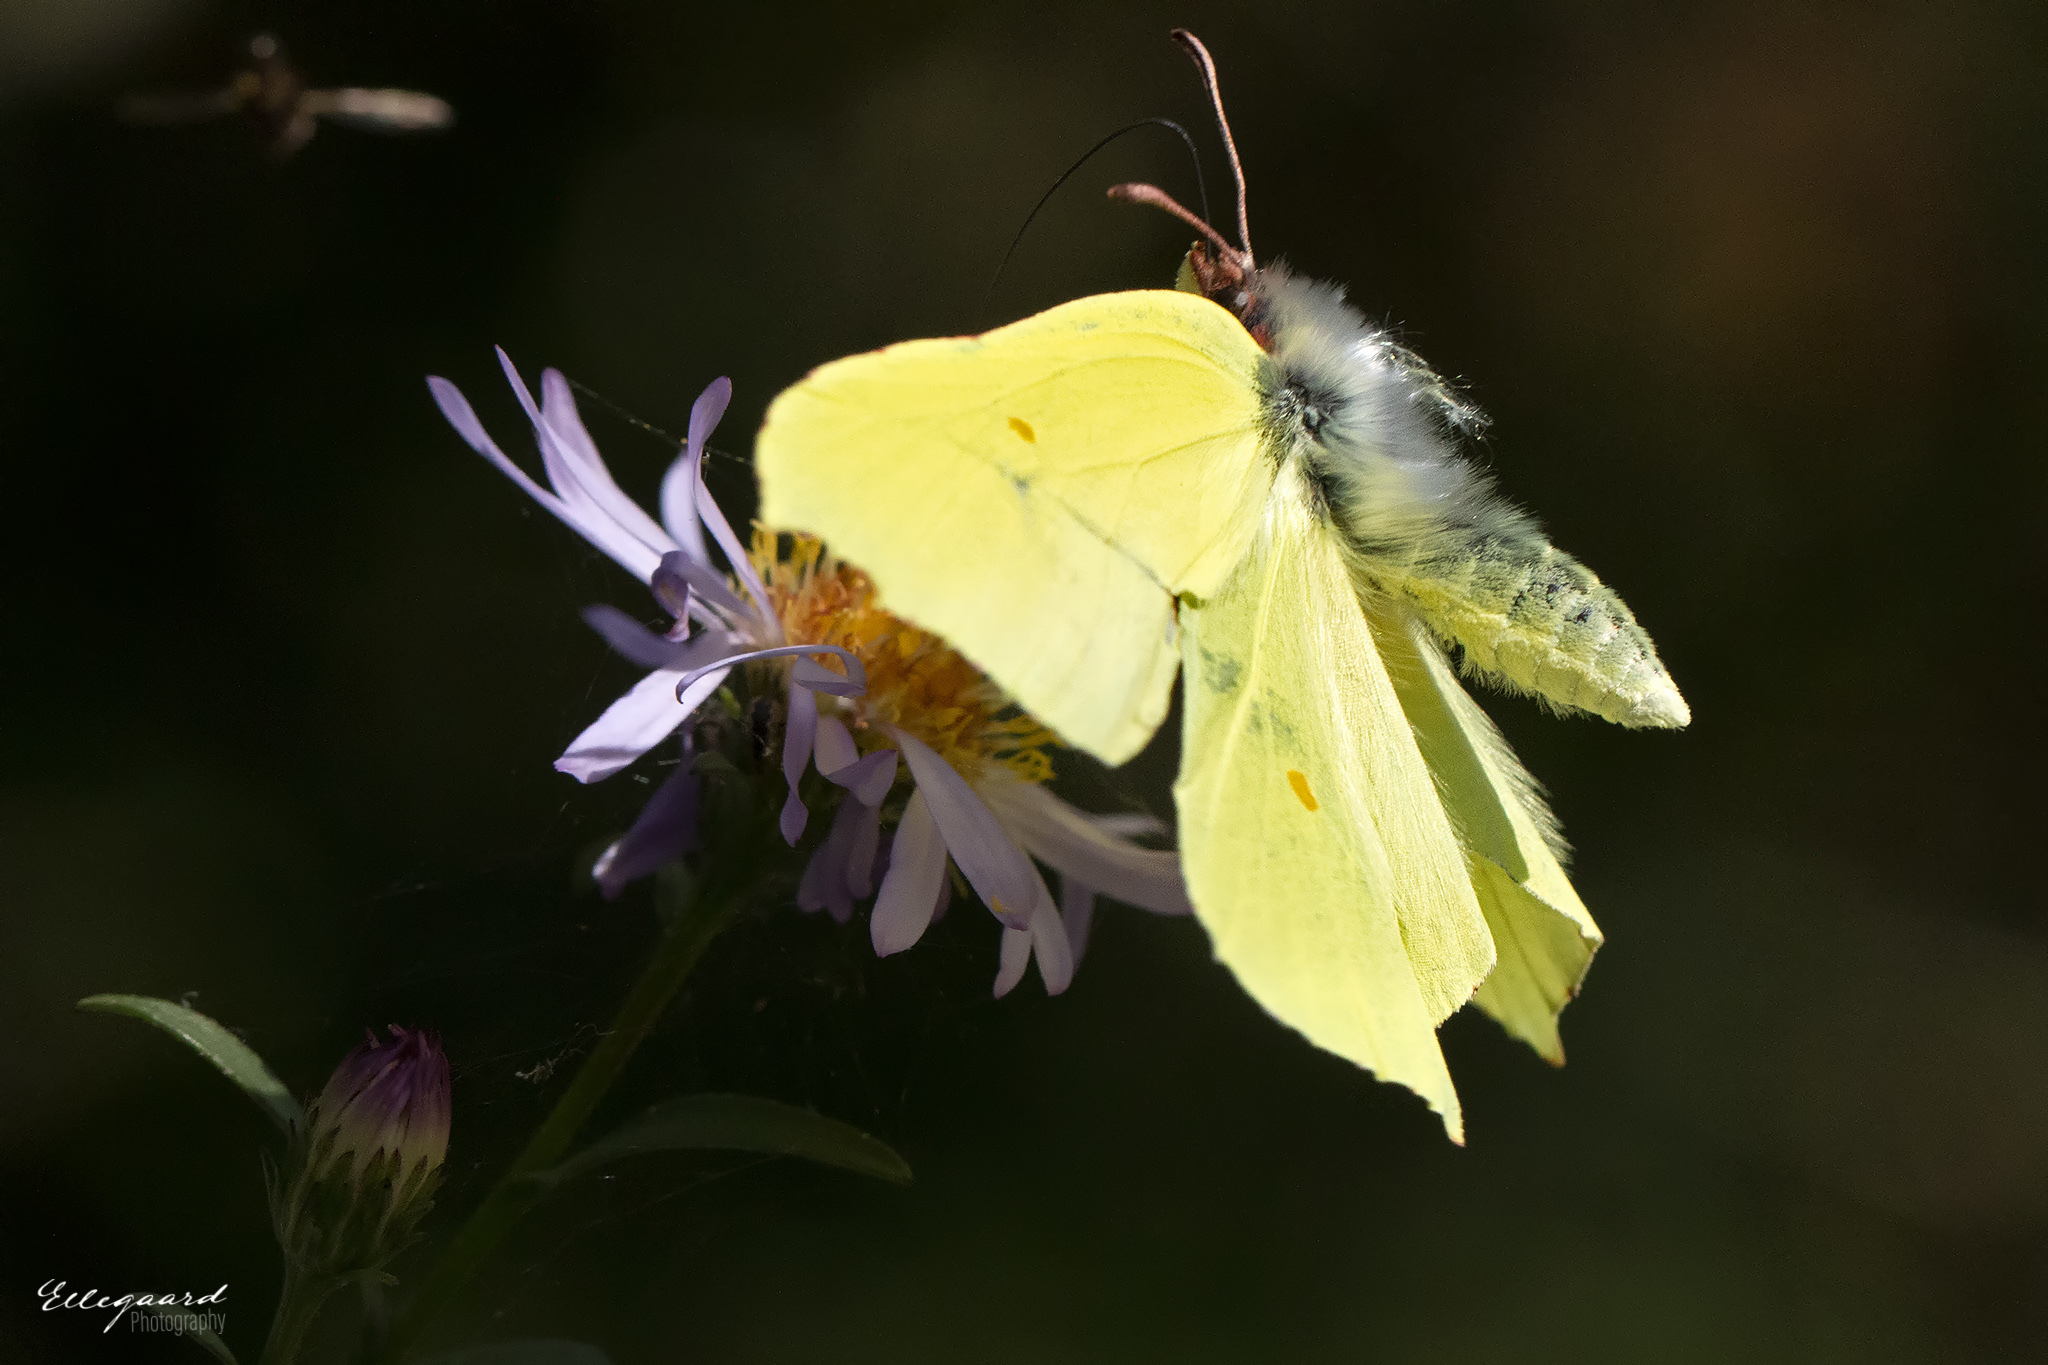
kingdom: Animalia
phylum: Arthropoda
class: Insecta
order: Lepidoptera
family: Pieridae
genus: Gonepteryx
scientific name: Gonepteryx rhamni
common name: Brimstone
